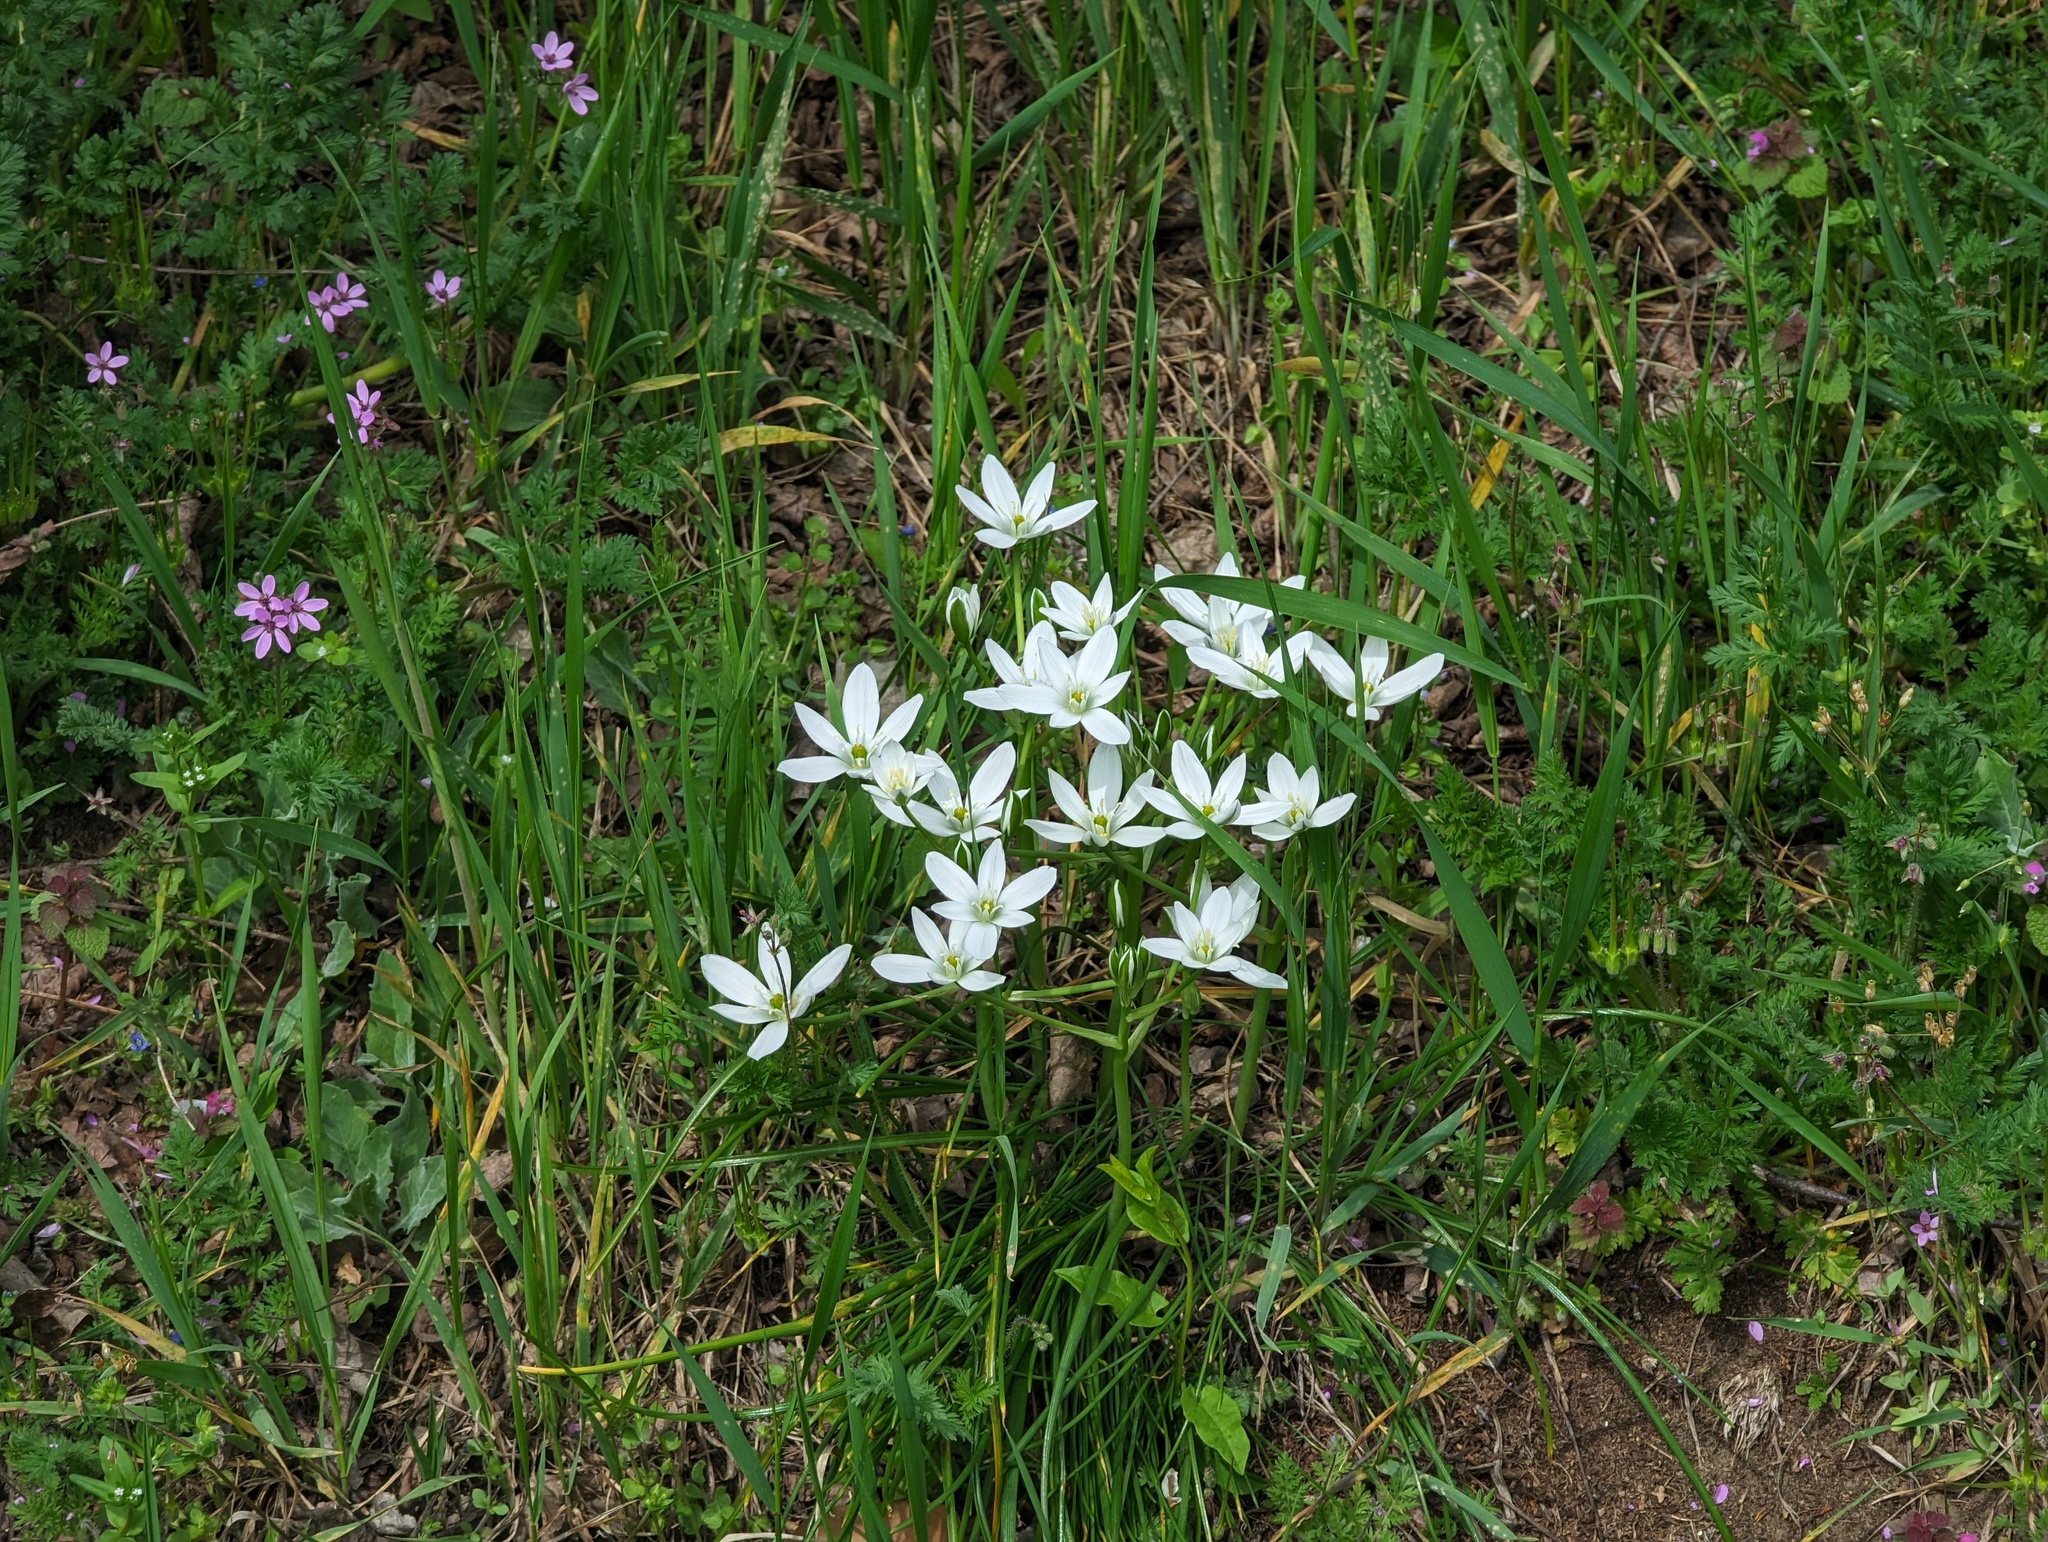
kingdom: Plantae
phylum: Tracheophyta
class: Liliopsida
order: Asparagales
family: Asparagaceae
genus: Ornithogalum
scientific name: Ornithogalum umbellatum
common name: Garden star-of-bethlehem
